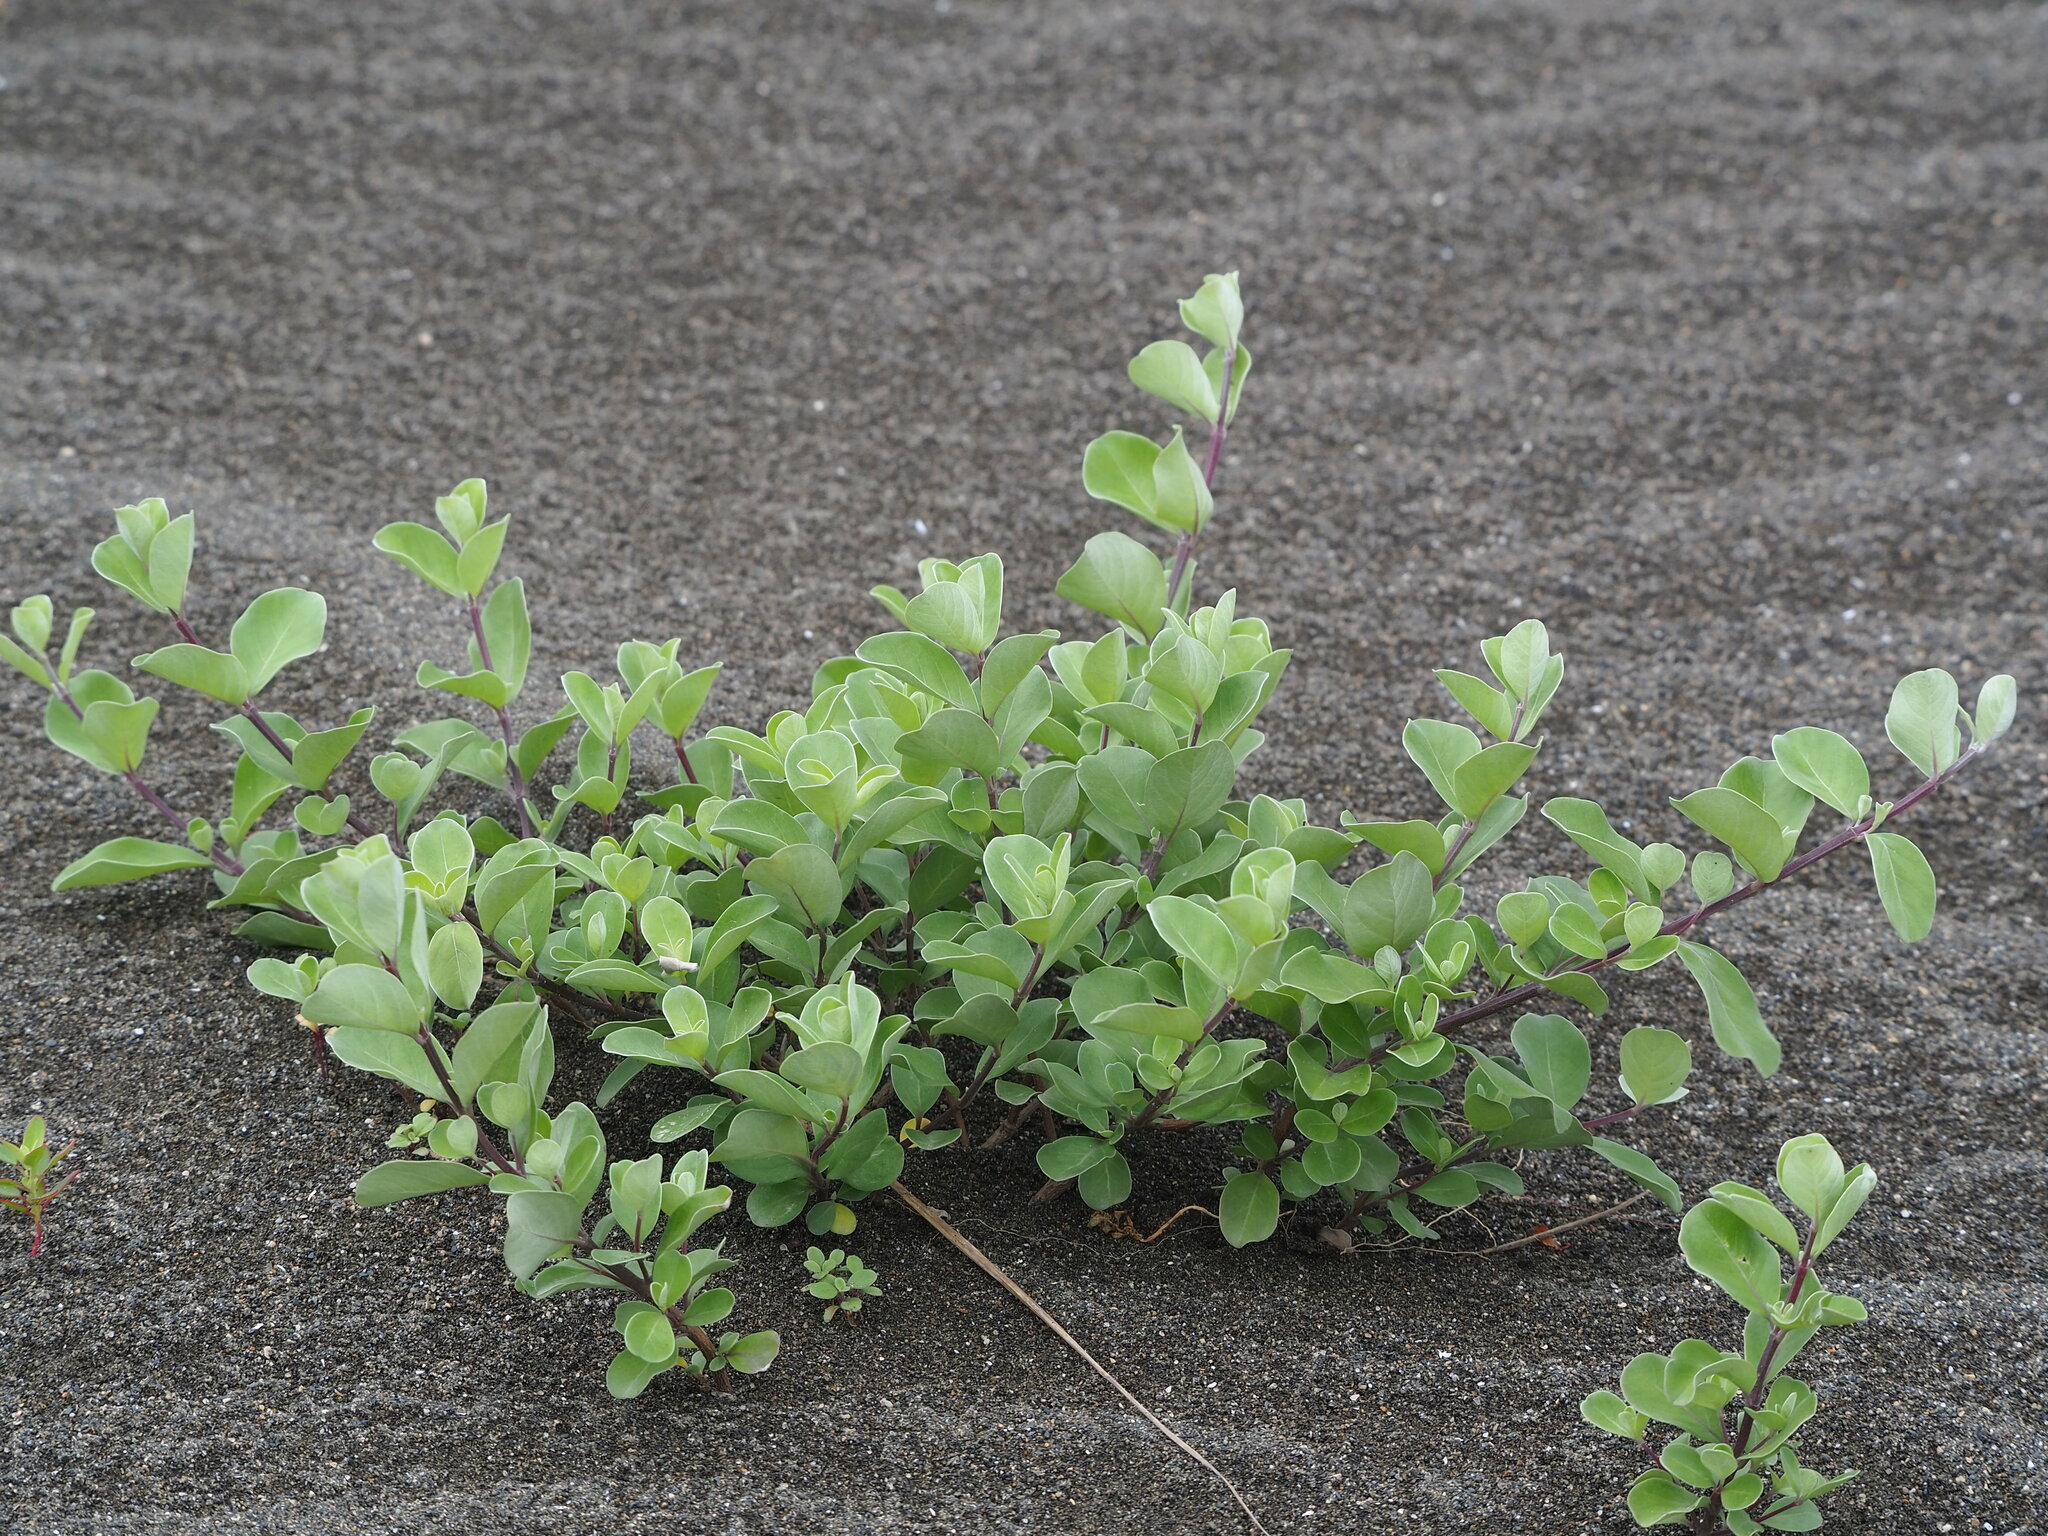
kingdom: Plantae
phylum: Tracheophyta
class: Magnoliopsida
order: Lamiales
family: Lamiaceae
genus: Vitex
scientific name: Vitex rotundifolia
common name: Beach vitex
